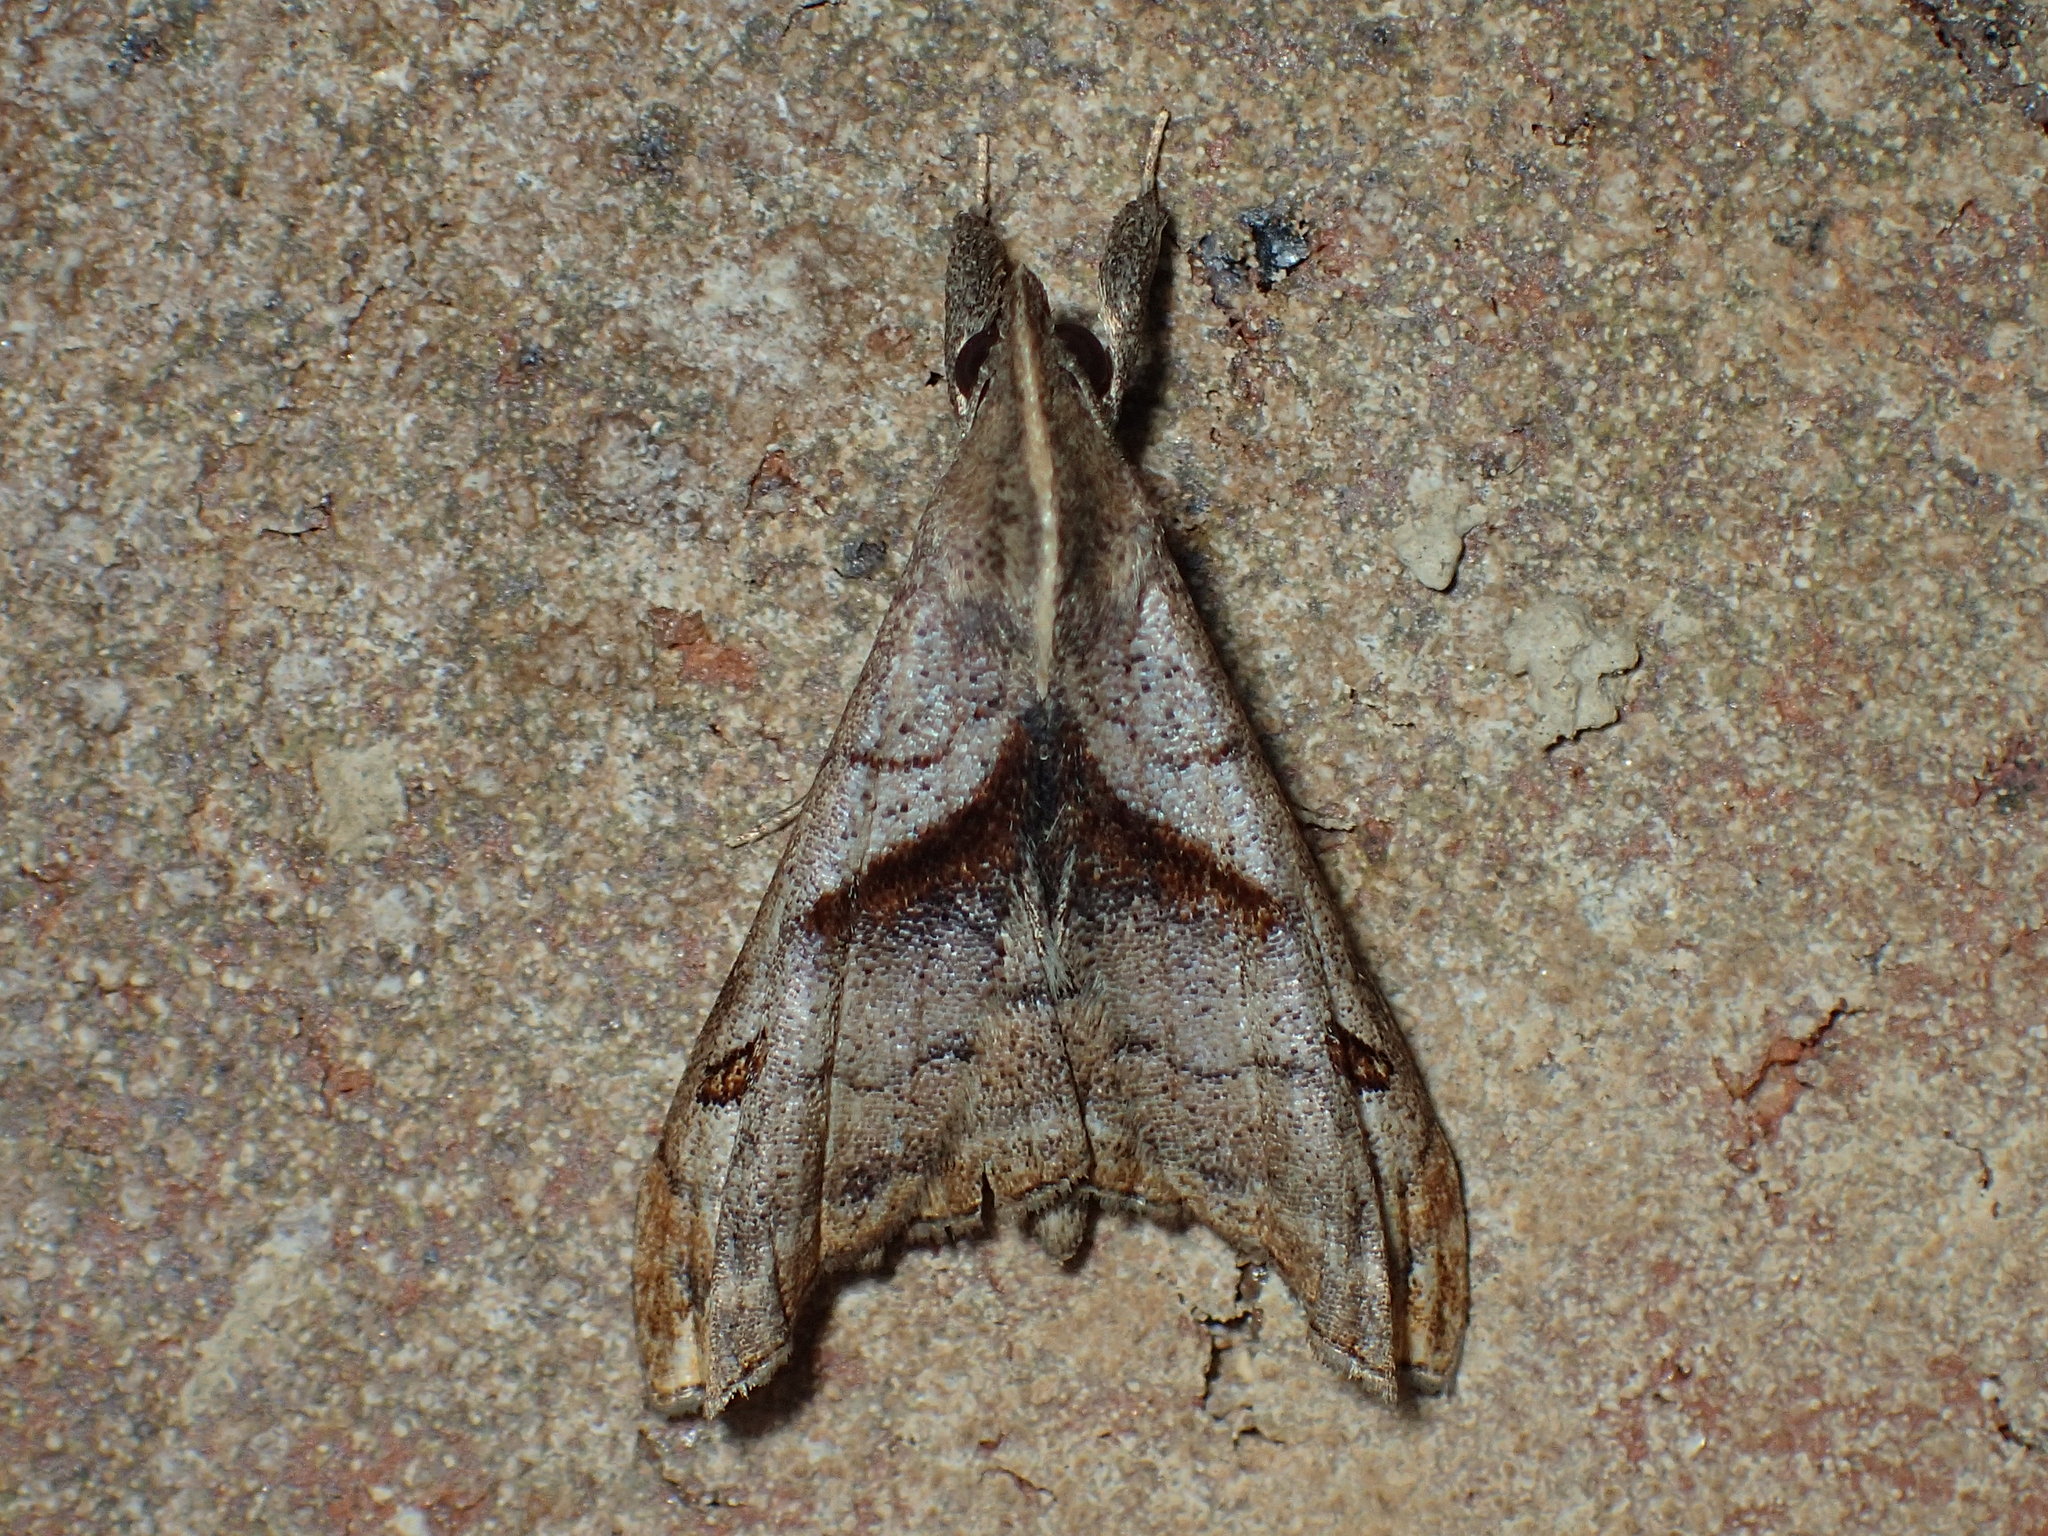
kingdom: Animalia
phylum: Arthropoda
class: Insecta
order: Lepidoptera
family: Erebidae
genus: Palthis
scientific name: Palthis angulalis
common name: Dark-spotted palthis moth
